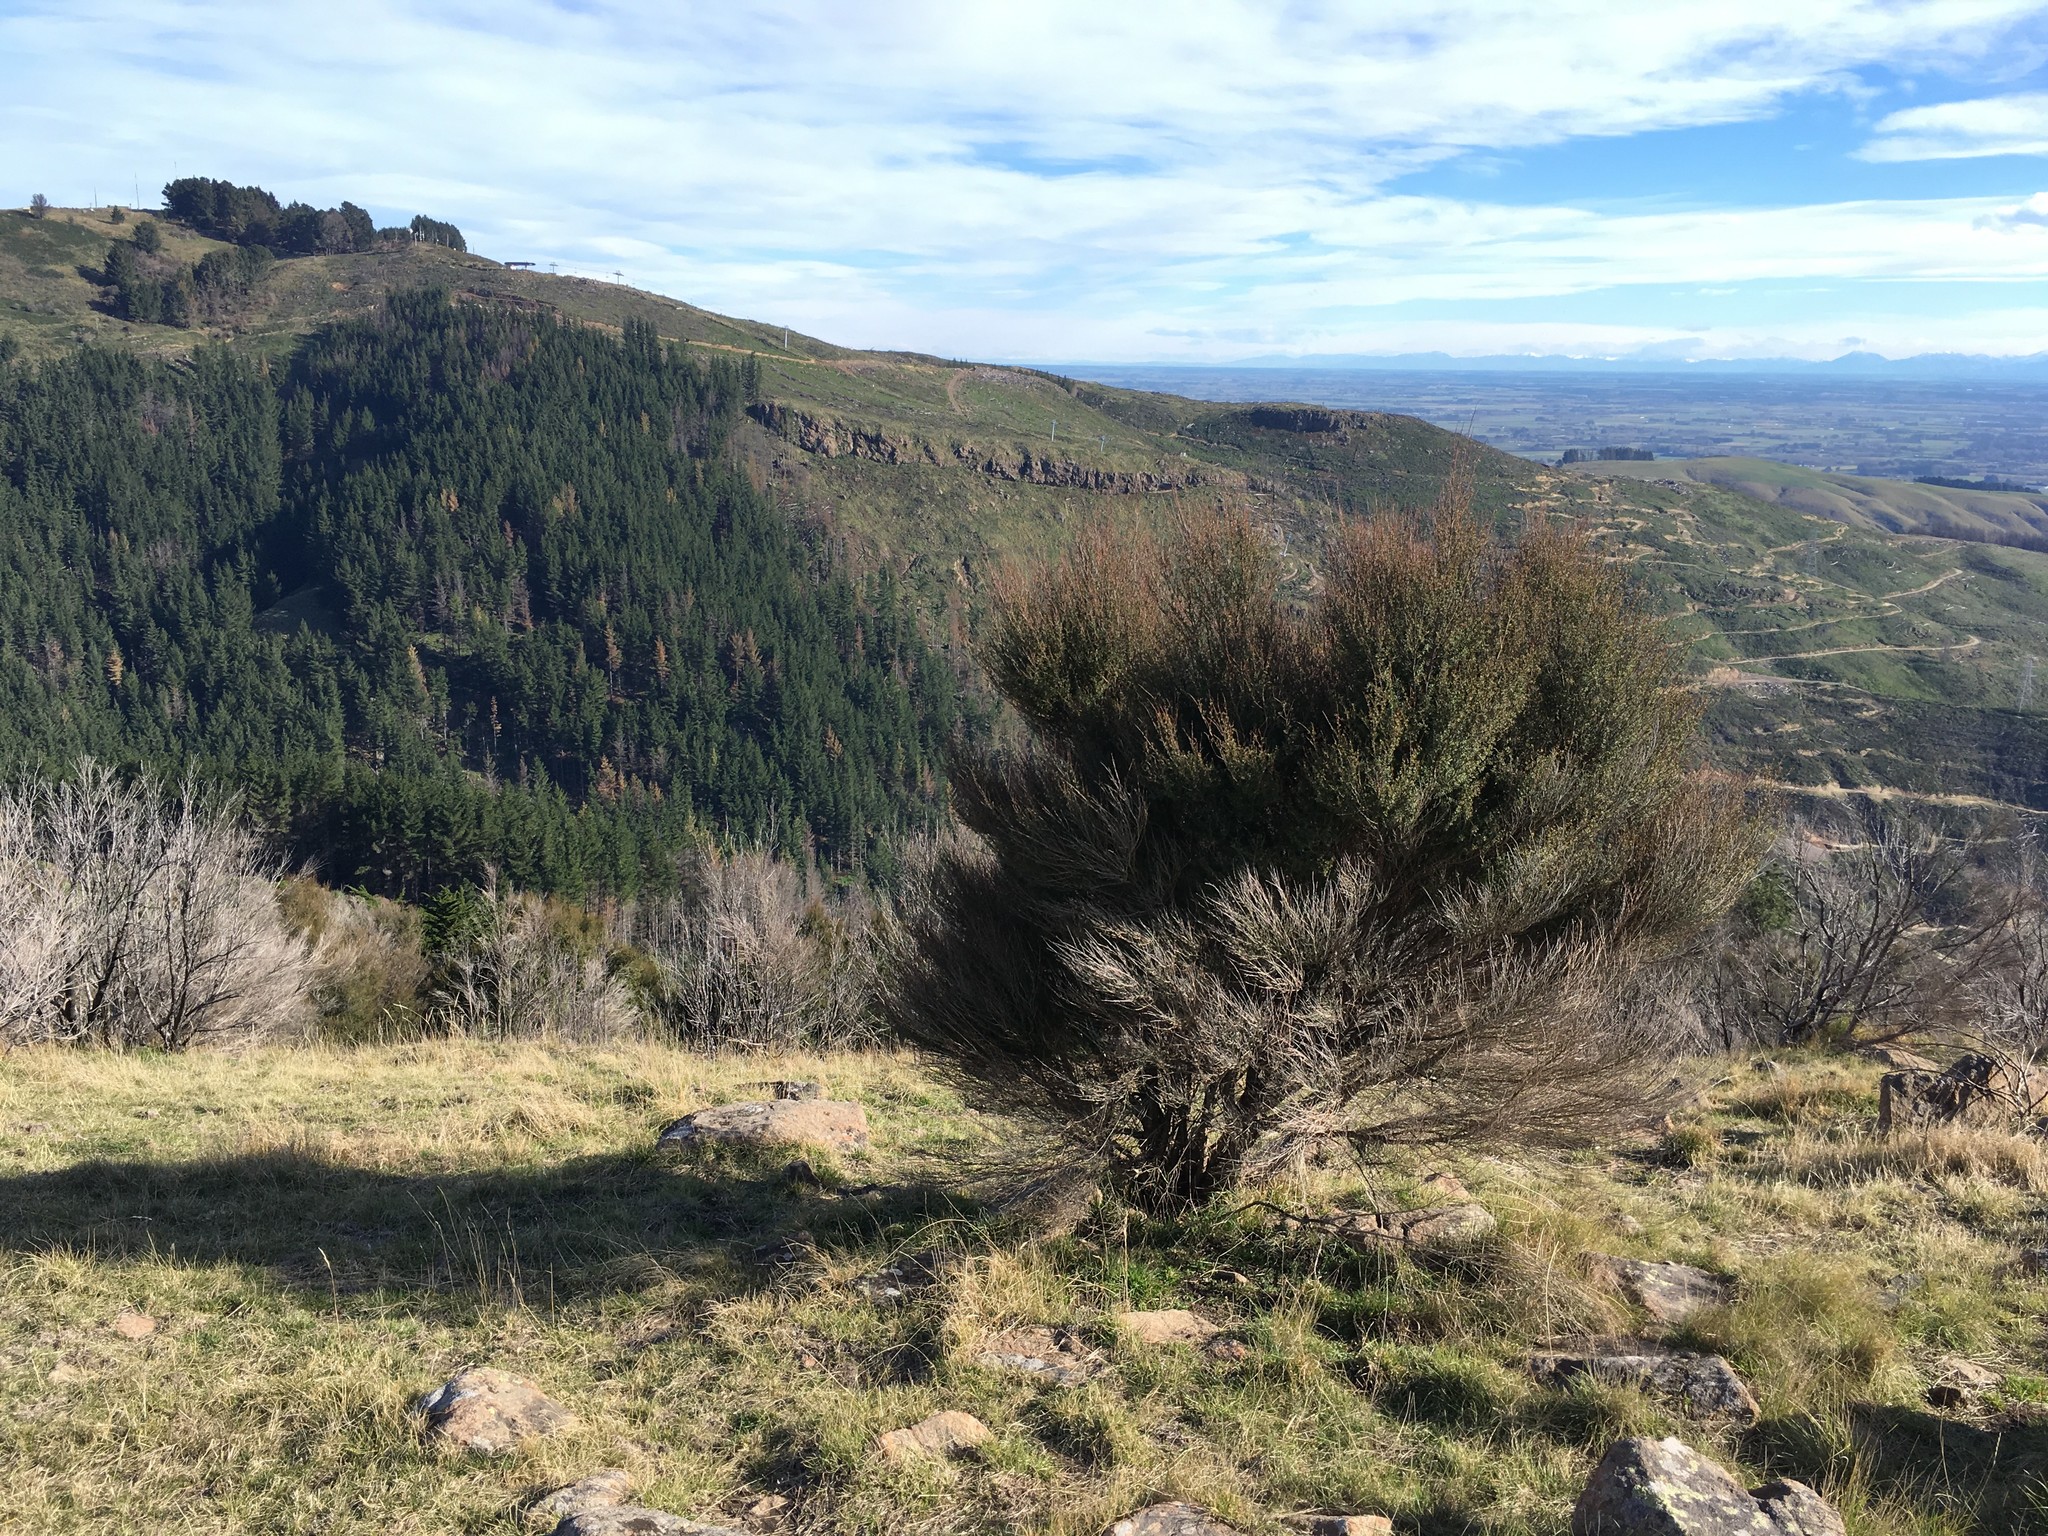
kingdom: Plantae
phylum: Tracheophyta
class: Magnoliopsida
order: Myrtales
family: Myrtaceae
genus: Kunzea
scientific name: Kunzea robusta
